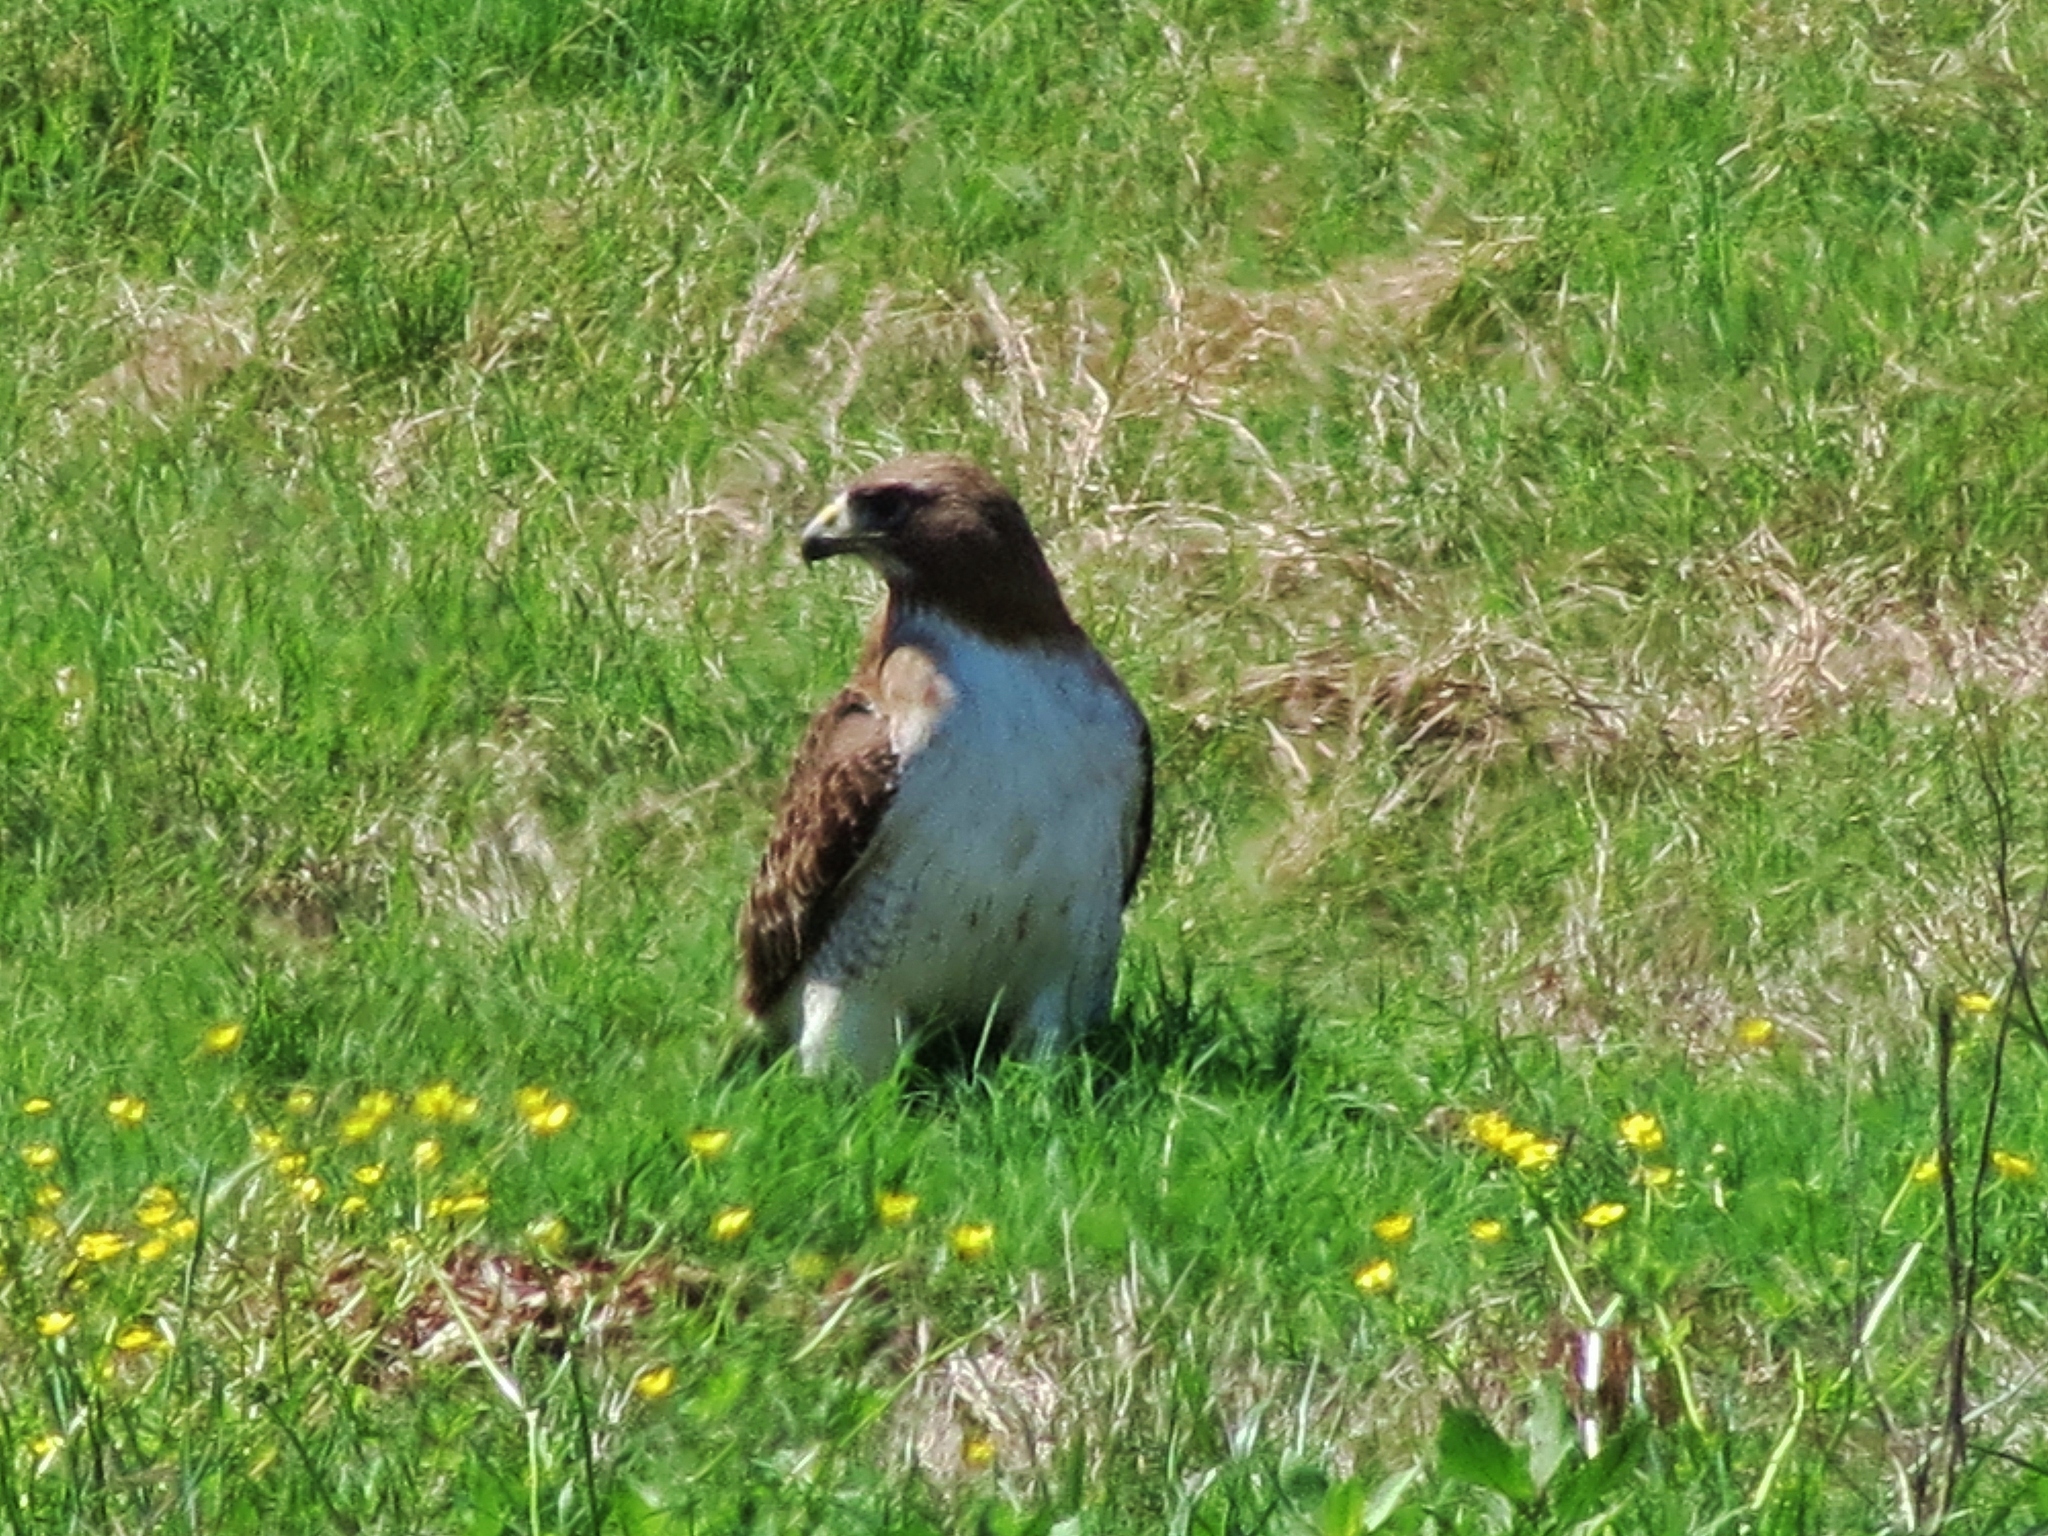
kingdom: Animalia
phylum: Chordata
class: Aves
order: Accipitriformes
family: Accipitridae
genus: Buteo
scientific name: Buteo jamaicensis
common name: Red-tailed hawk
